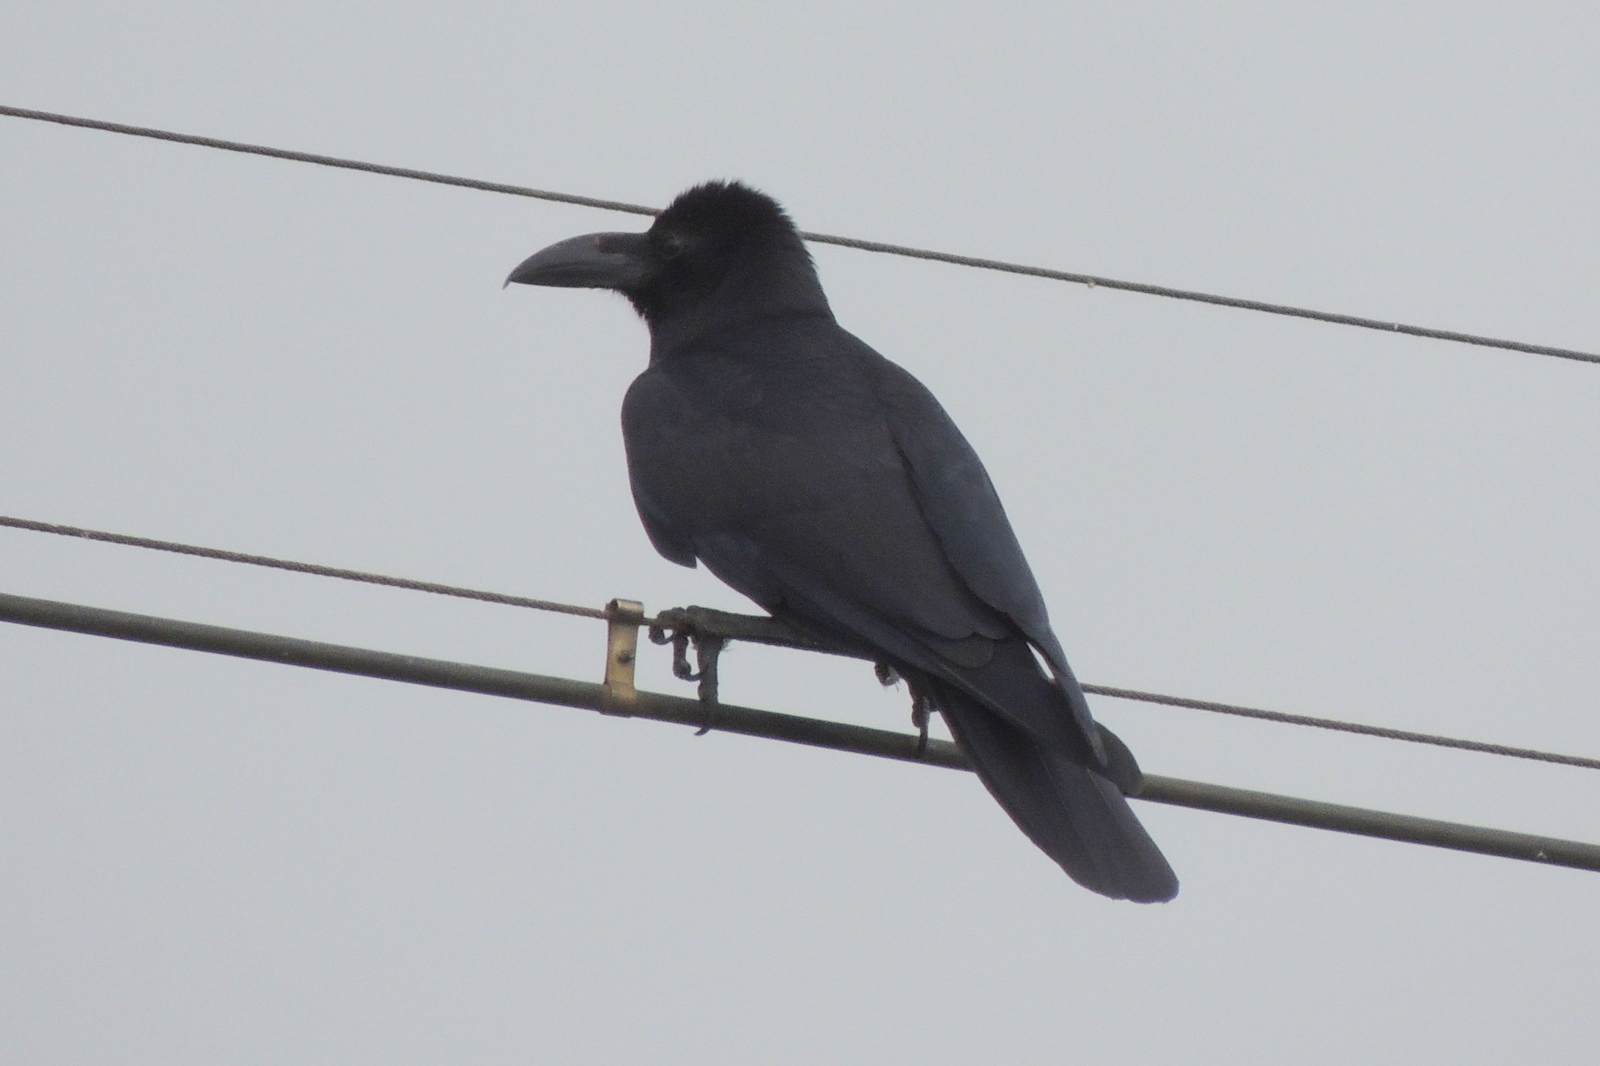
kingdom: Animalia
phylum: Chordata
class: Aves
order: Passeriformes
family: Corvidae
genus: Corvus
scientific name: Corvus macrorhynchos
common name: Large-billed crow
